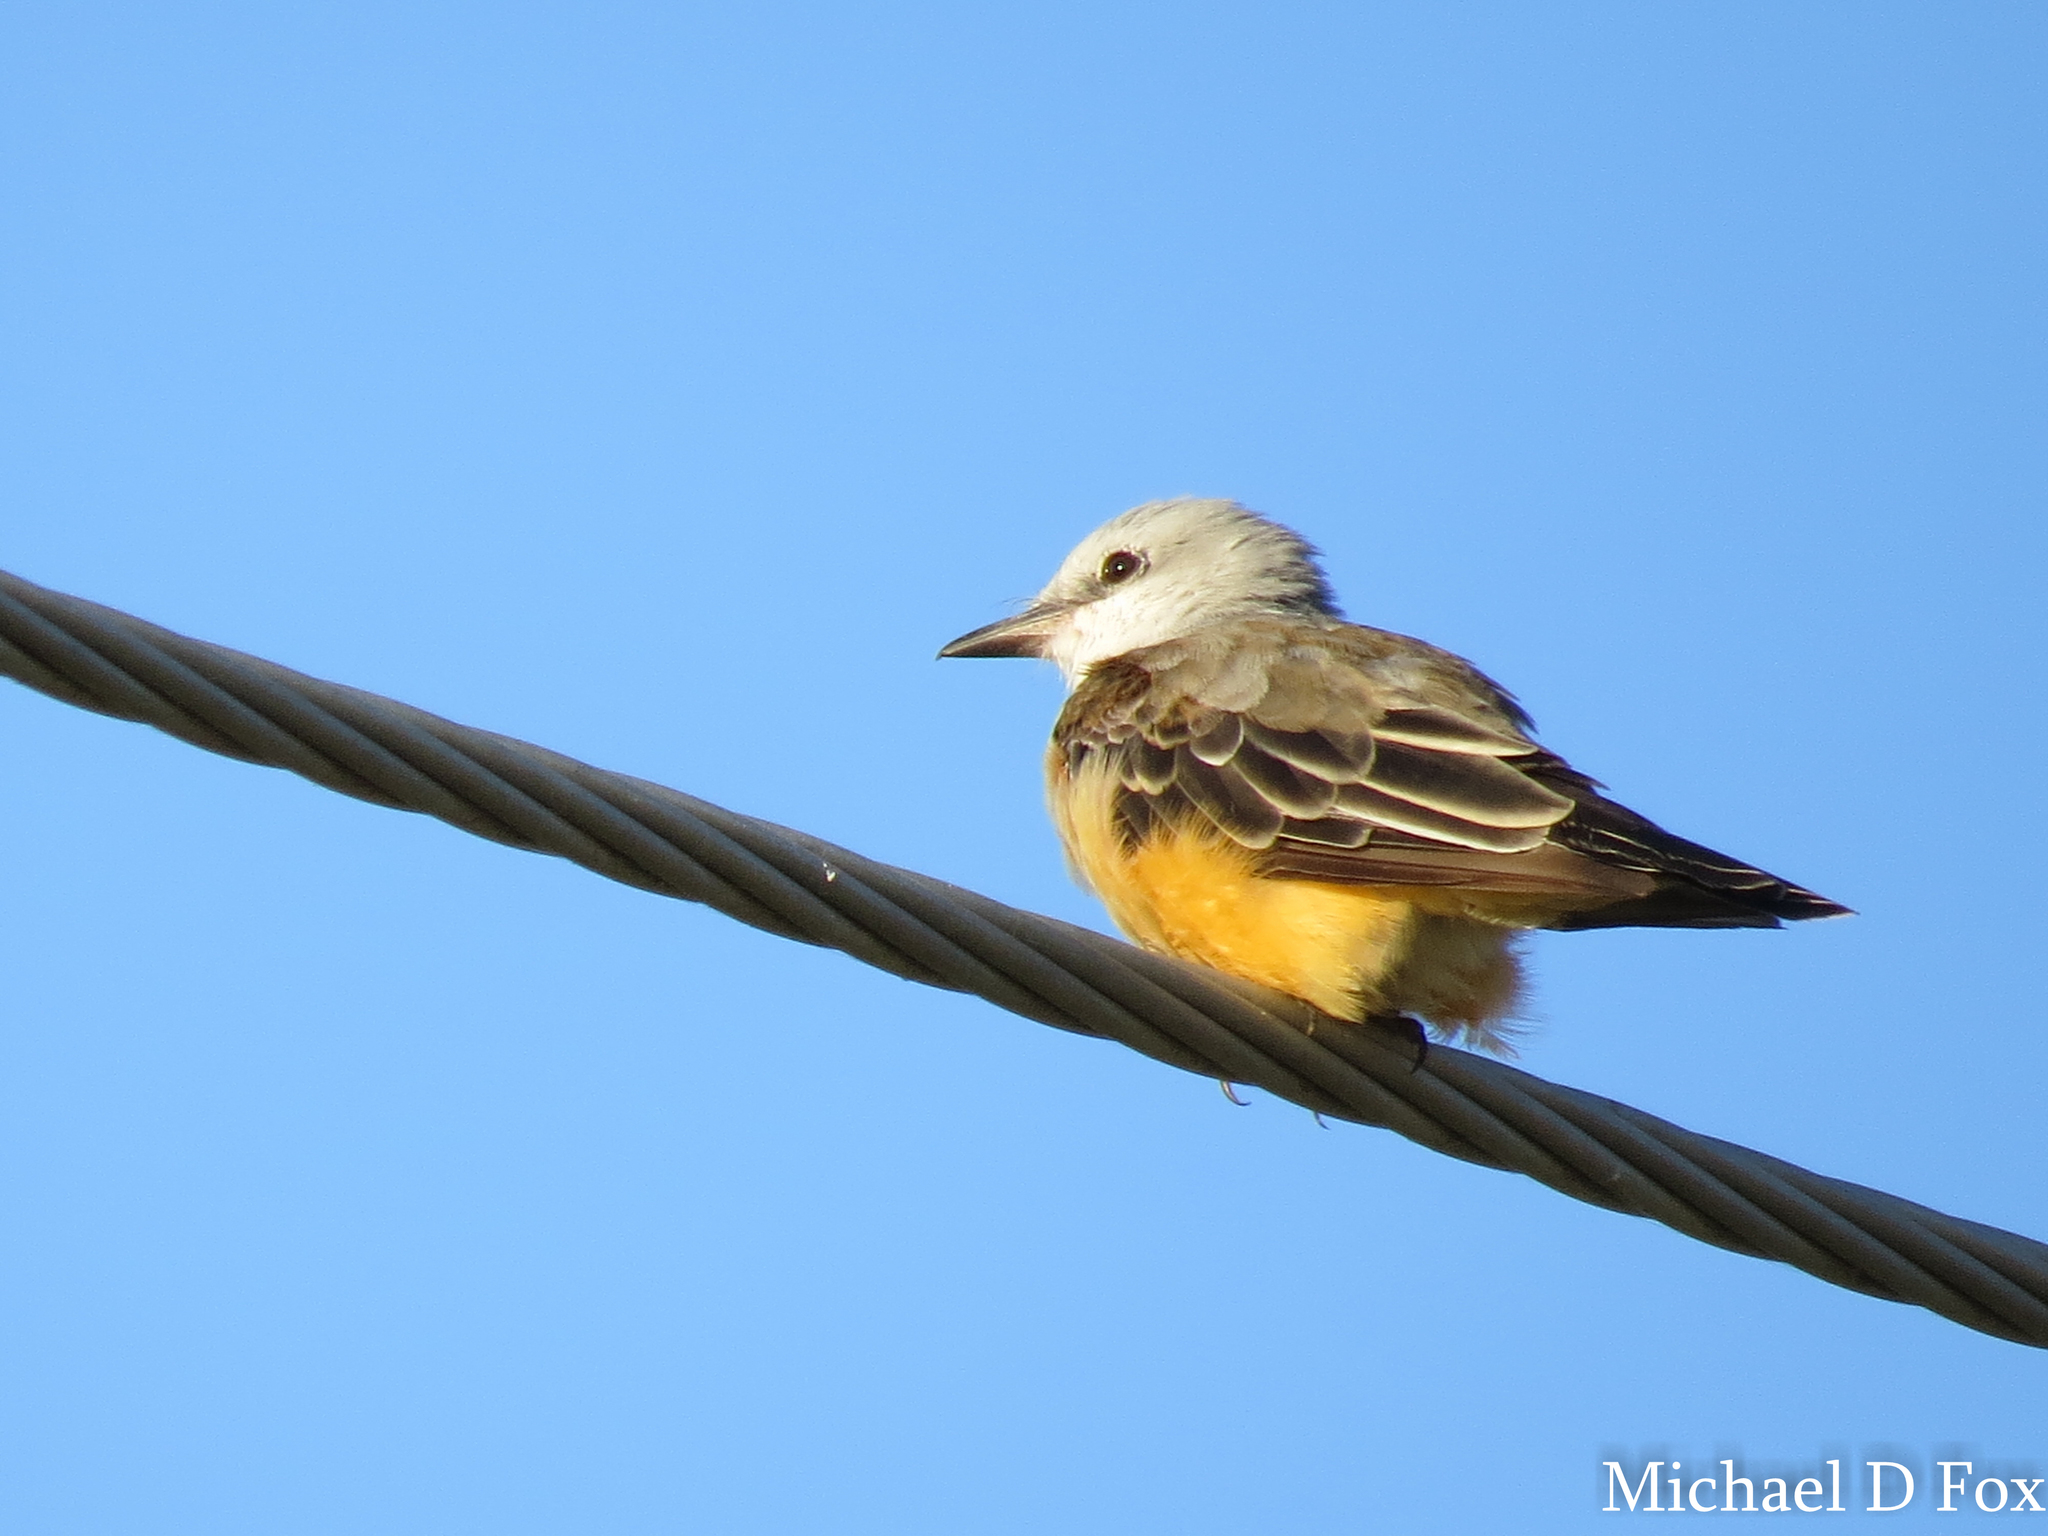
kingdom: Animalia
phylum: Chordata
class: Aves
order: Passeriformes
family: Tyrannidae
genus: Tyrannus
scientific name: Tyrannus forficatus
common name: Scissor-tailed flycatcher
